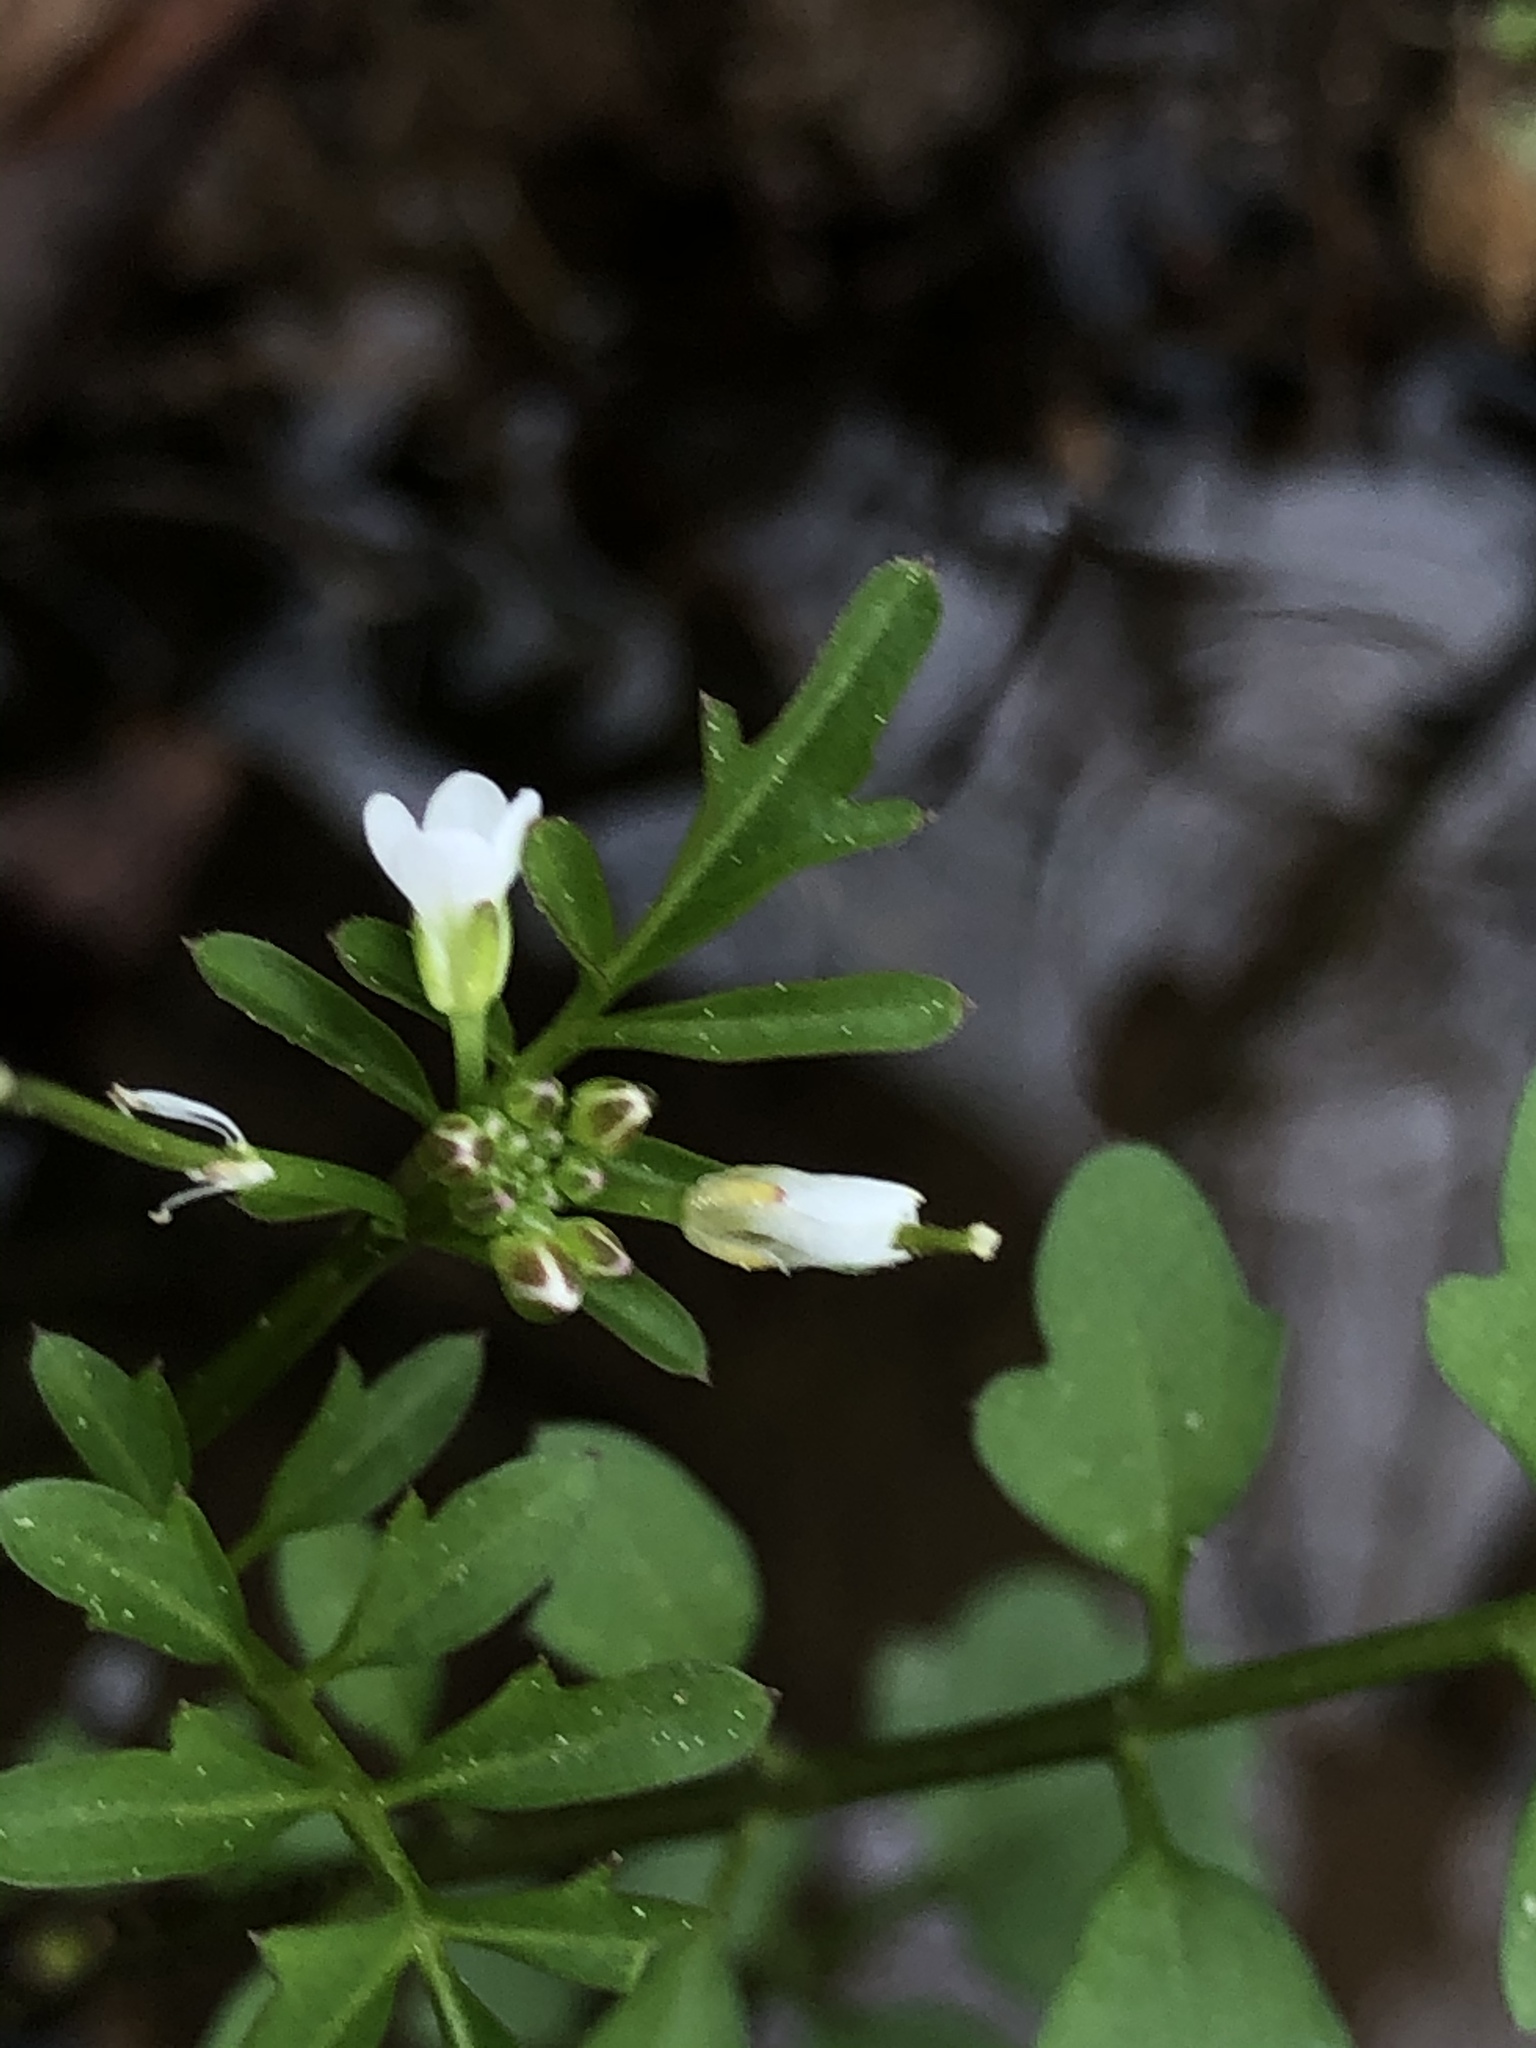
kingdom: Plantae
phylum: Tracheophyta
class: Magnoliopsida
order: Brassicales
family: Brassicaceae
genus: Cardamine
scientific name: Cardamine occulta
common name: Asian wavy bittercress
